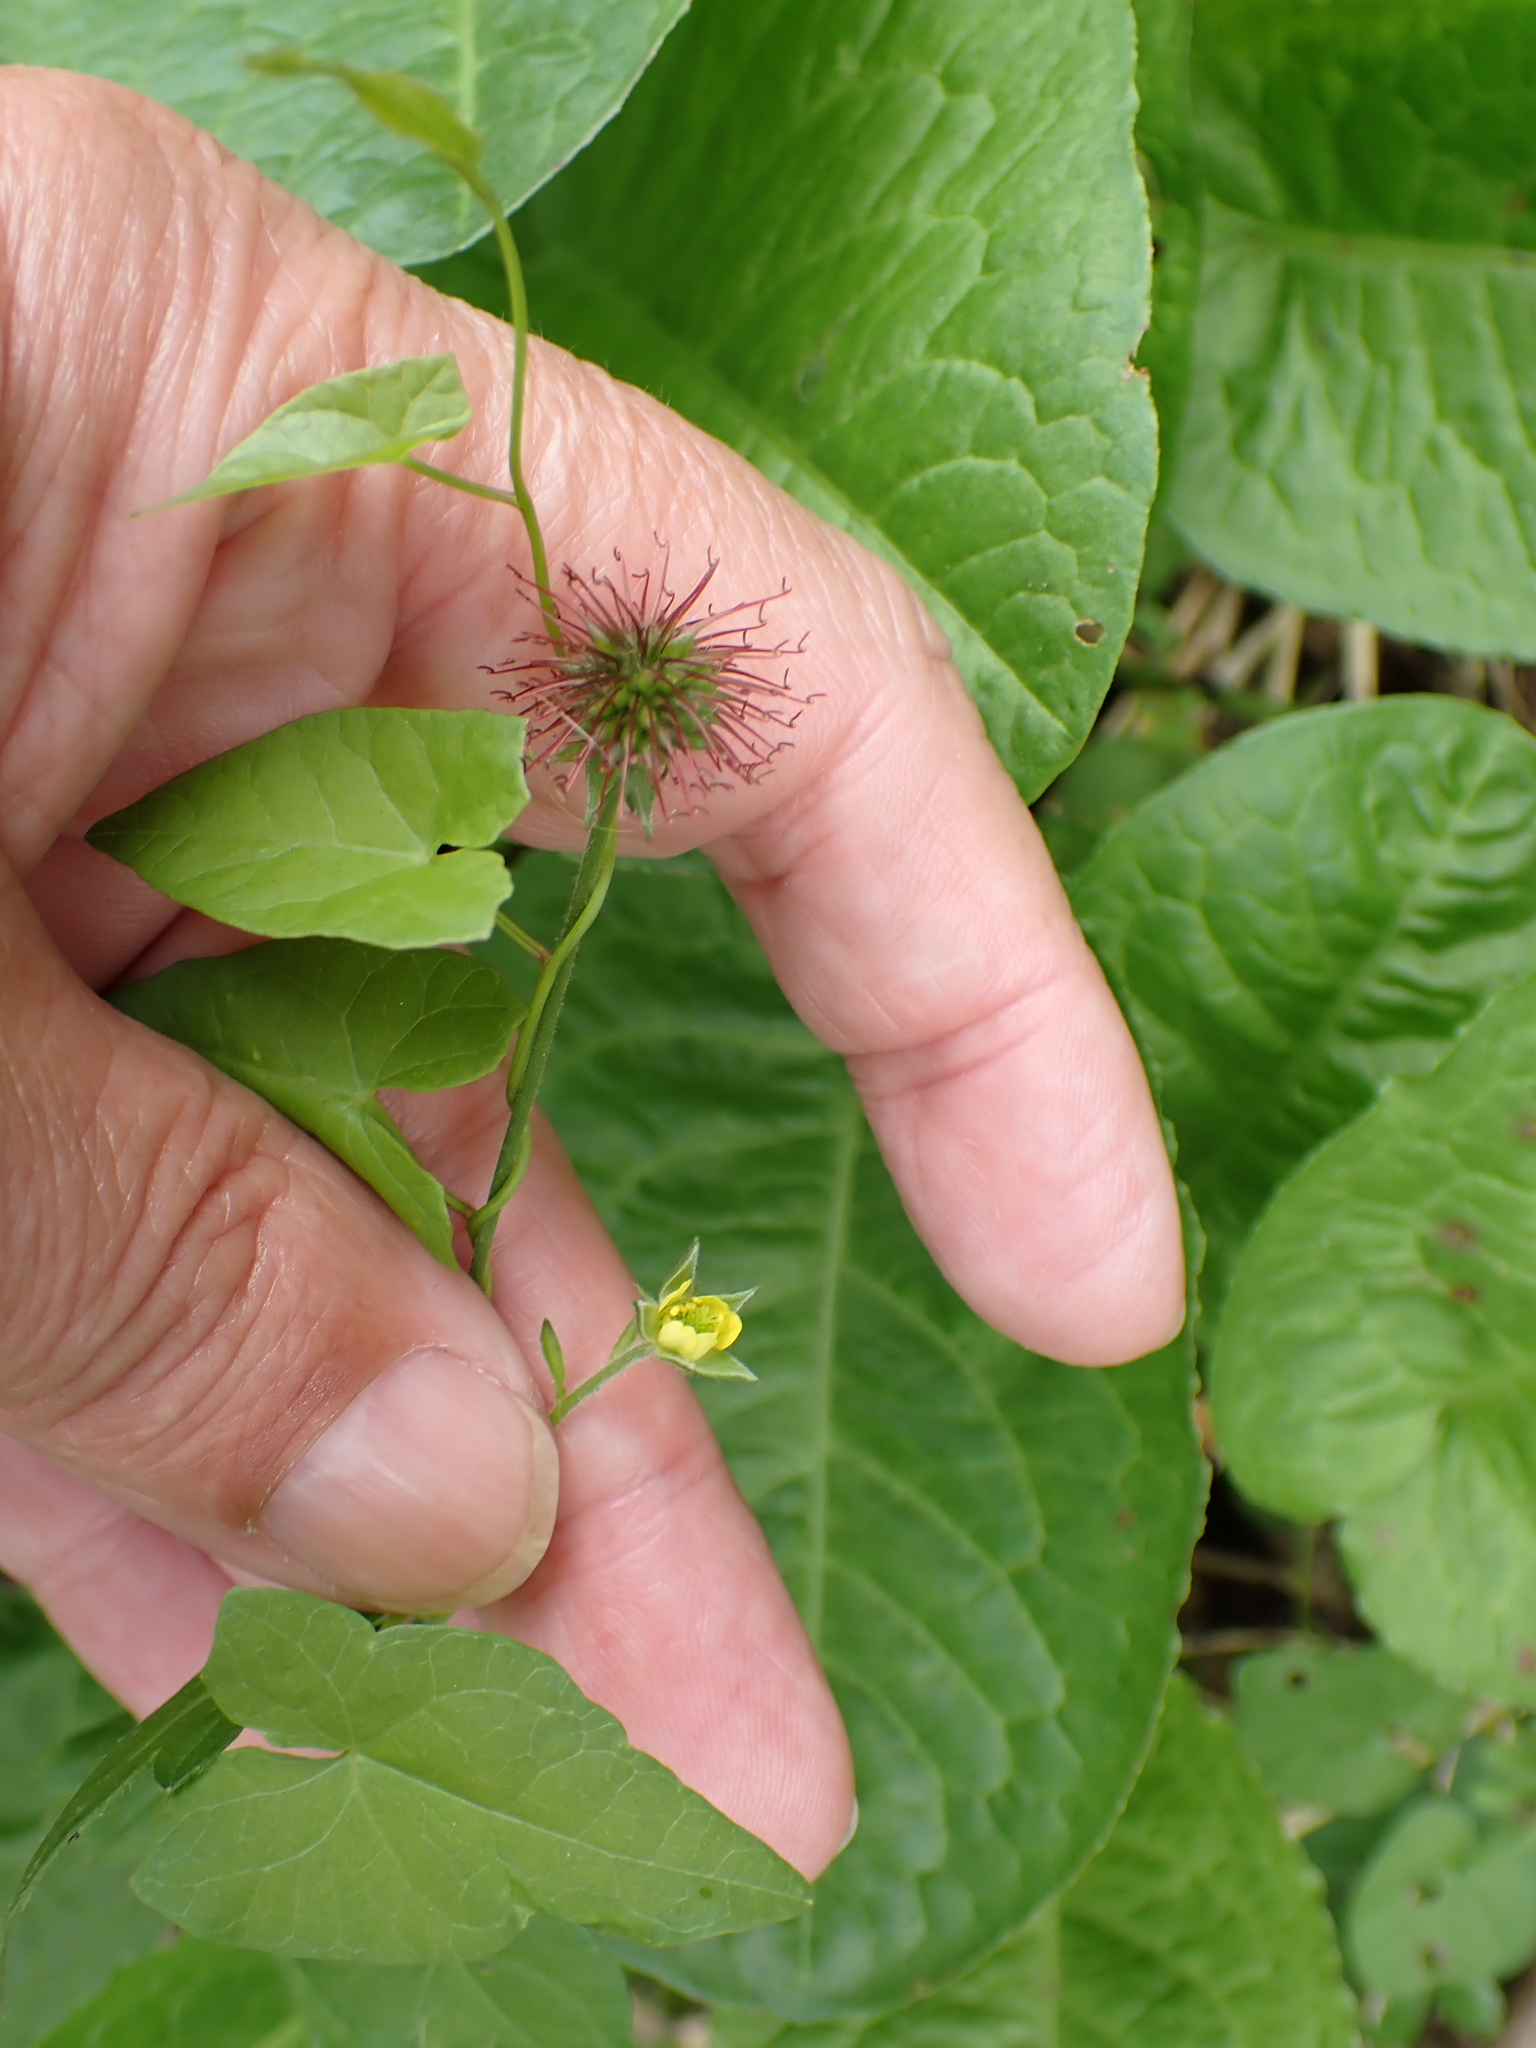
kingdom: Plantae
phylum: Tracheophyta
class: Magnoliopsida
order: Rosales
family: Rosaceae
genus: Geum
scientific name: Geum urbanum
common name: Wood avens
